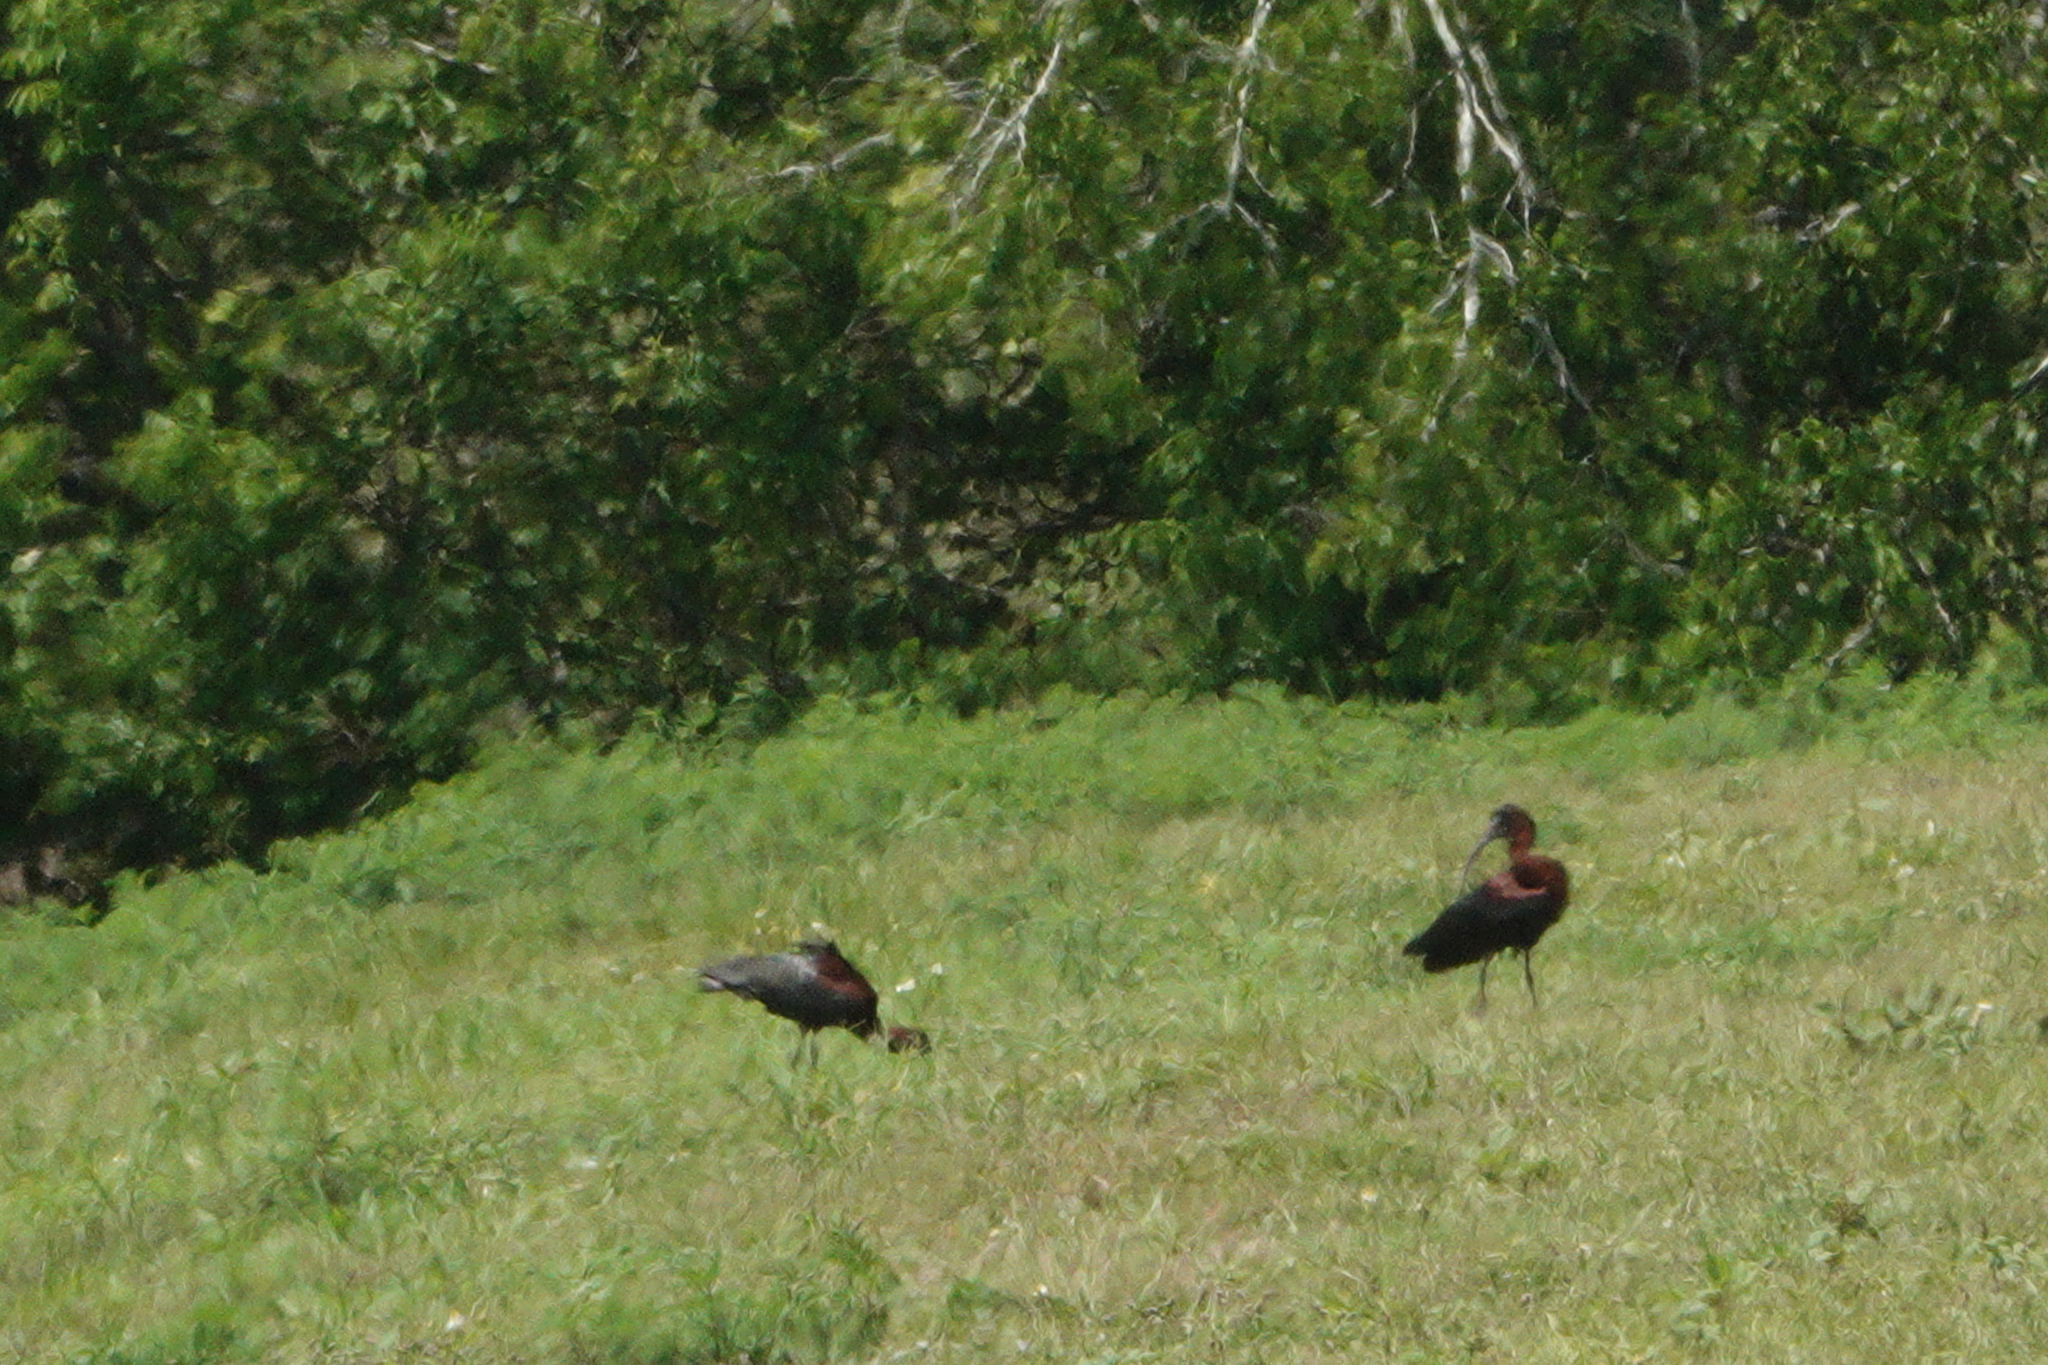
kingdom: Animalia
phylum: Chordata
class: Aves
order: Pelecaniformes
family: Threskiornithidae
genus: Plegadis
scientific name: Plegadis falcinellus
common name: Glossy ibis
